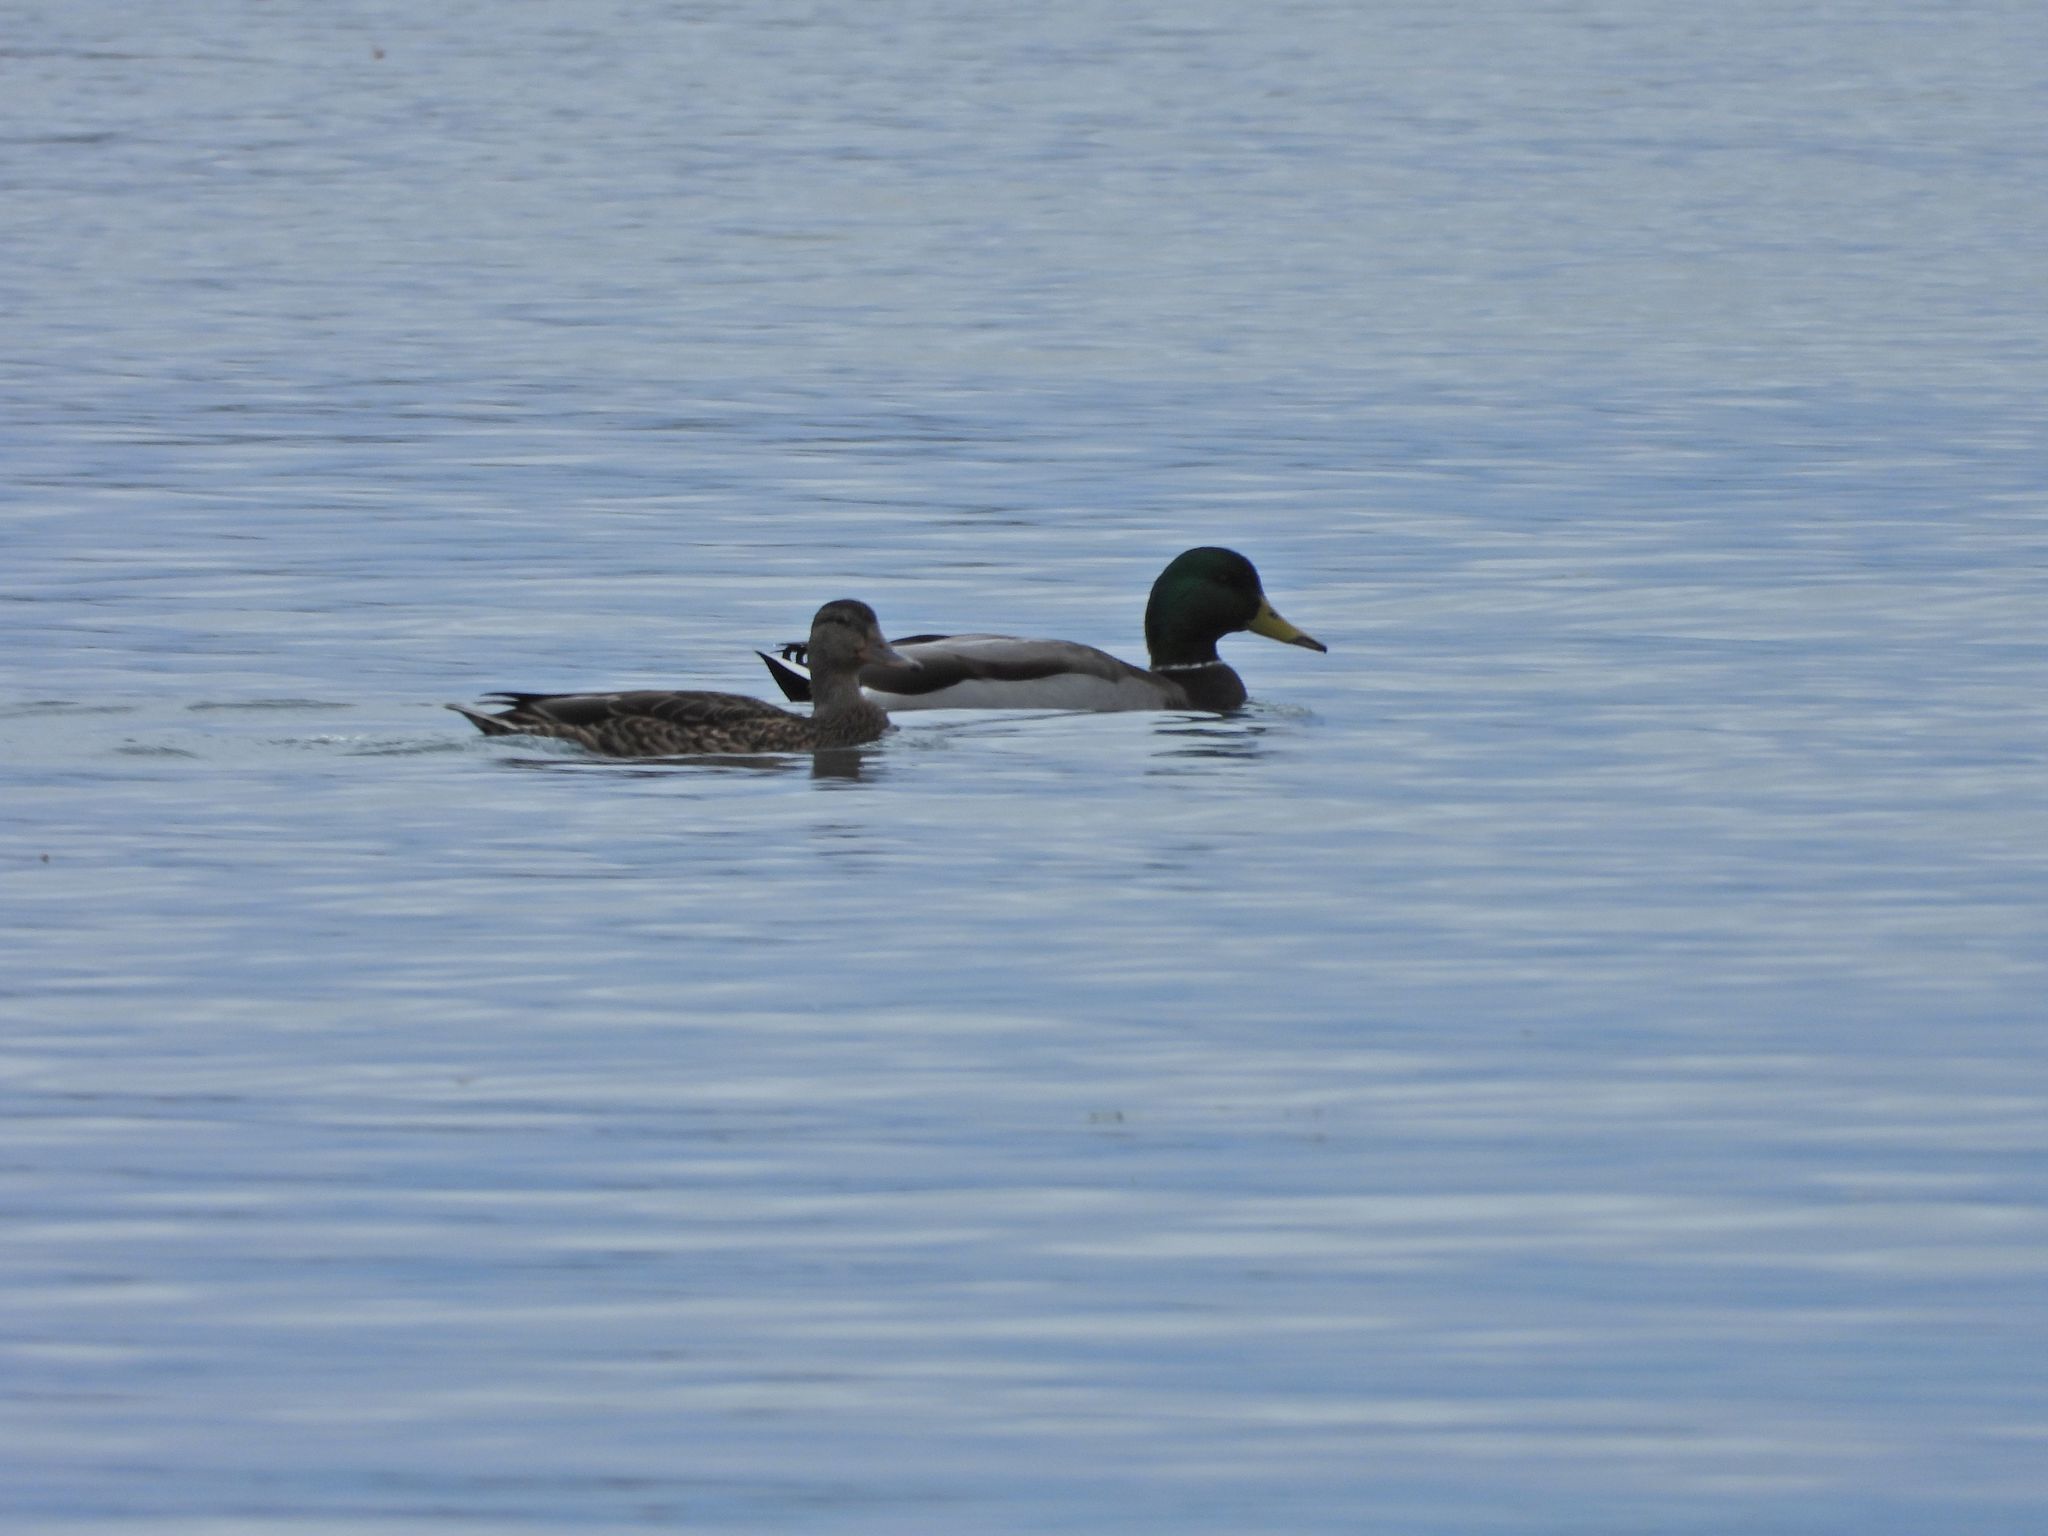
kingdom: Animalia
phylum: Chordata
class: Aves
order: Anseriformes
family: Anatidae
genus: Anas
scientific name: Anas platyrhynchos
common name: Mallard
